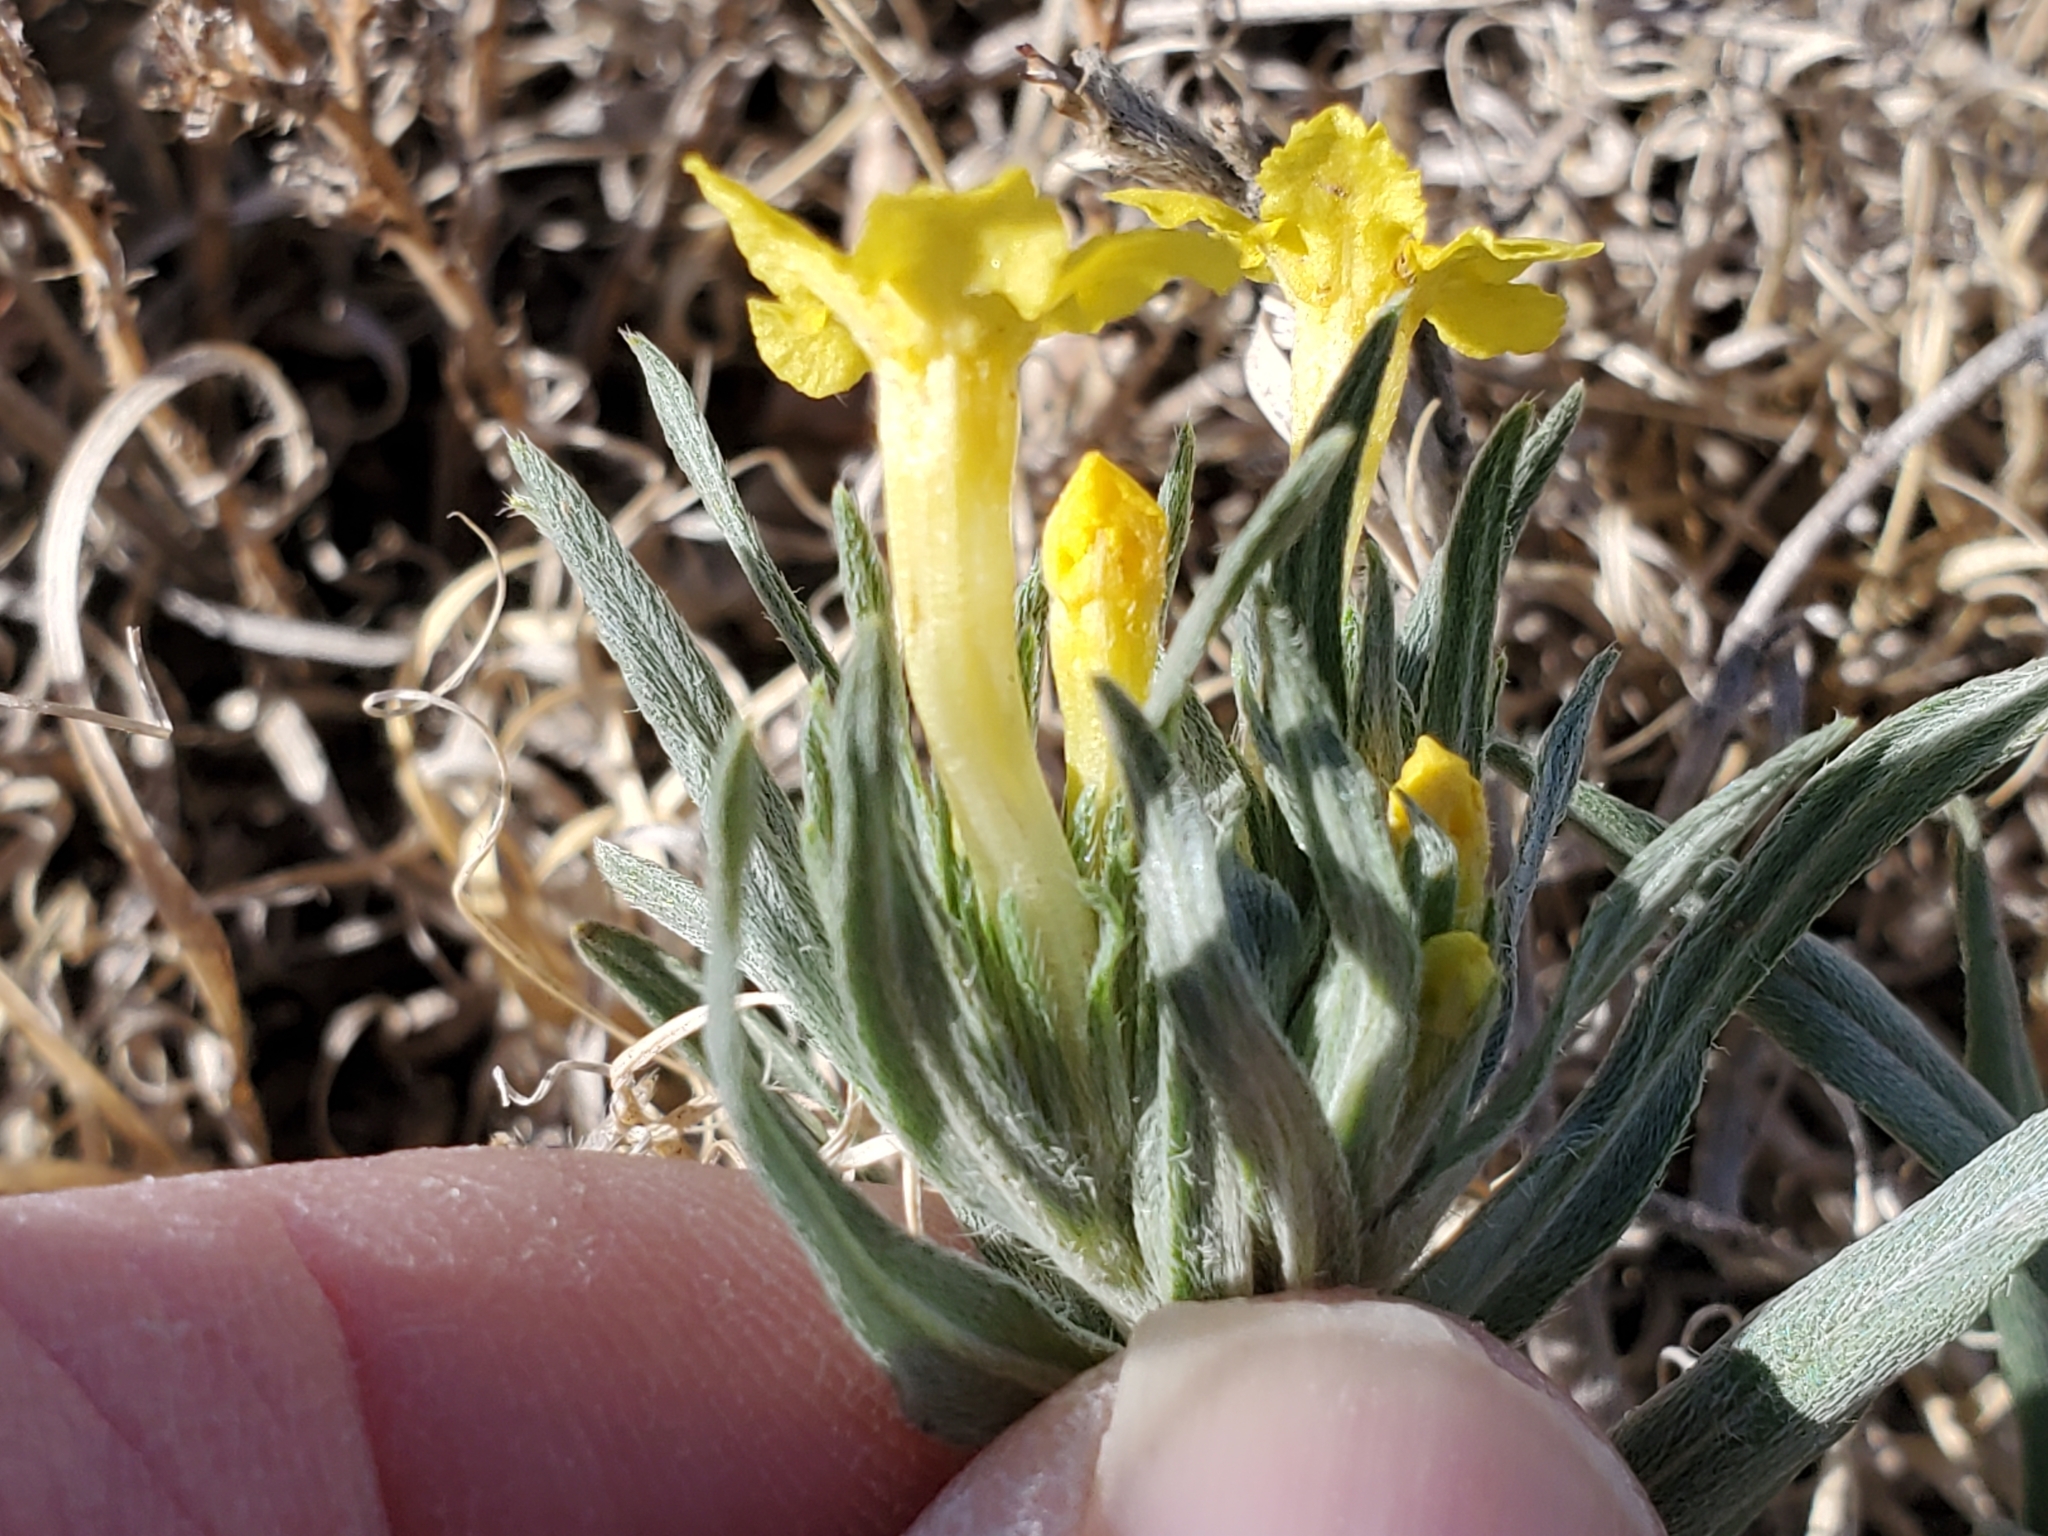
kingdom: Plantae
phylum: Tracheophyta
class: Magnoliopsida
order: Boraginales
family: Boraginaceae
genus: Lithospermum
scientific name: Lithospermum incisum
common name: Fringed gromwell
